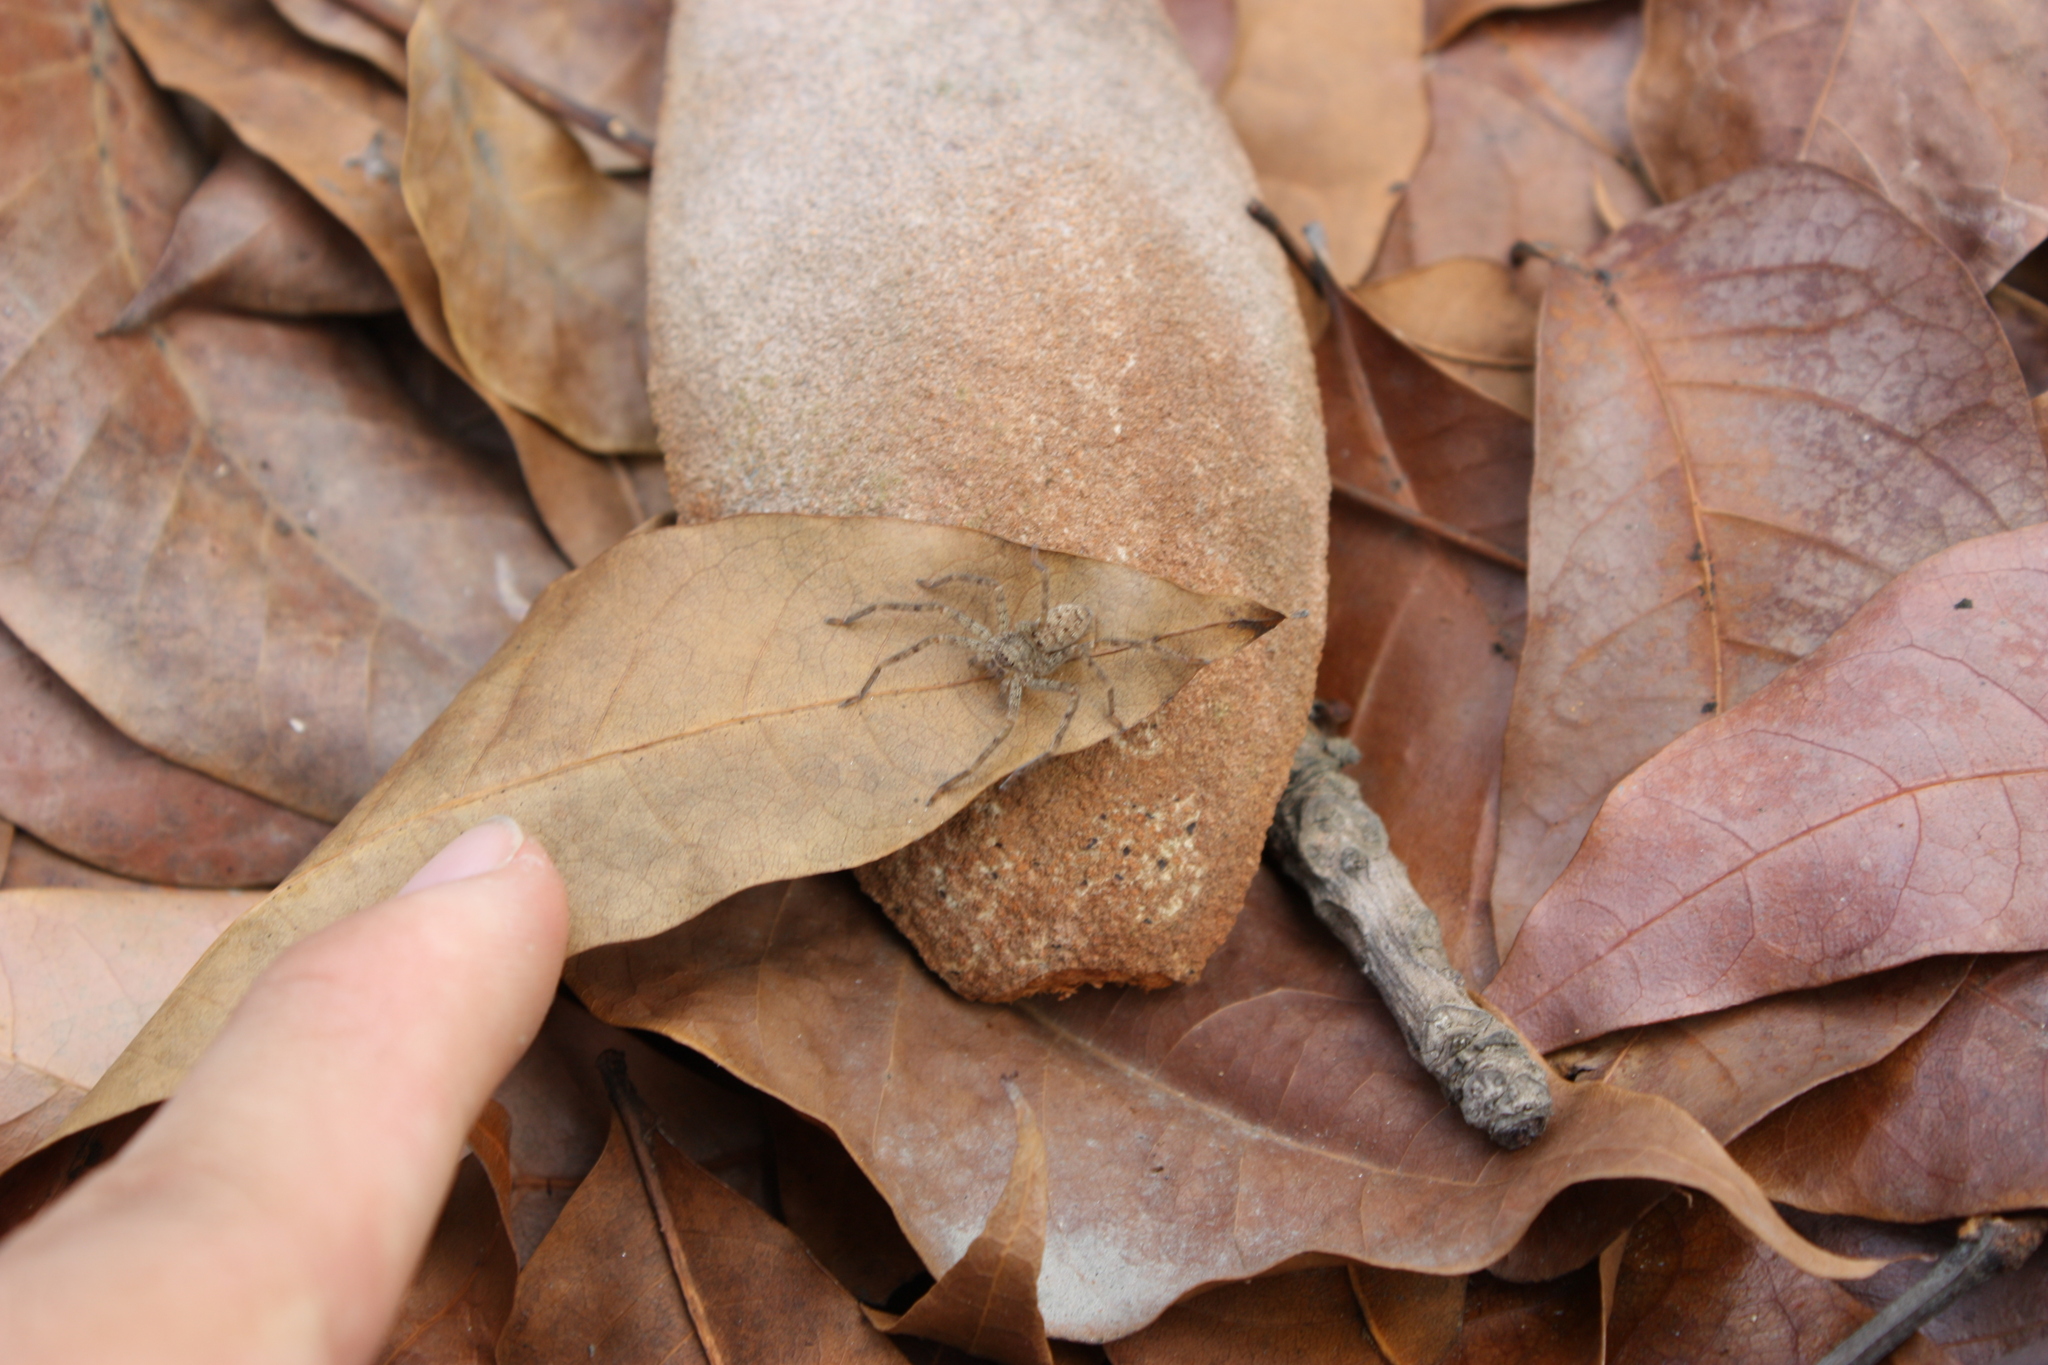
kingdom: Animalia
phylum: Arthropoda
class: Arachnida
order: Araneae
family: Sparassidae
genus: Heteropoda
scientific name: Heteropoda venatoria
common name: Huntsman spider
